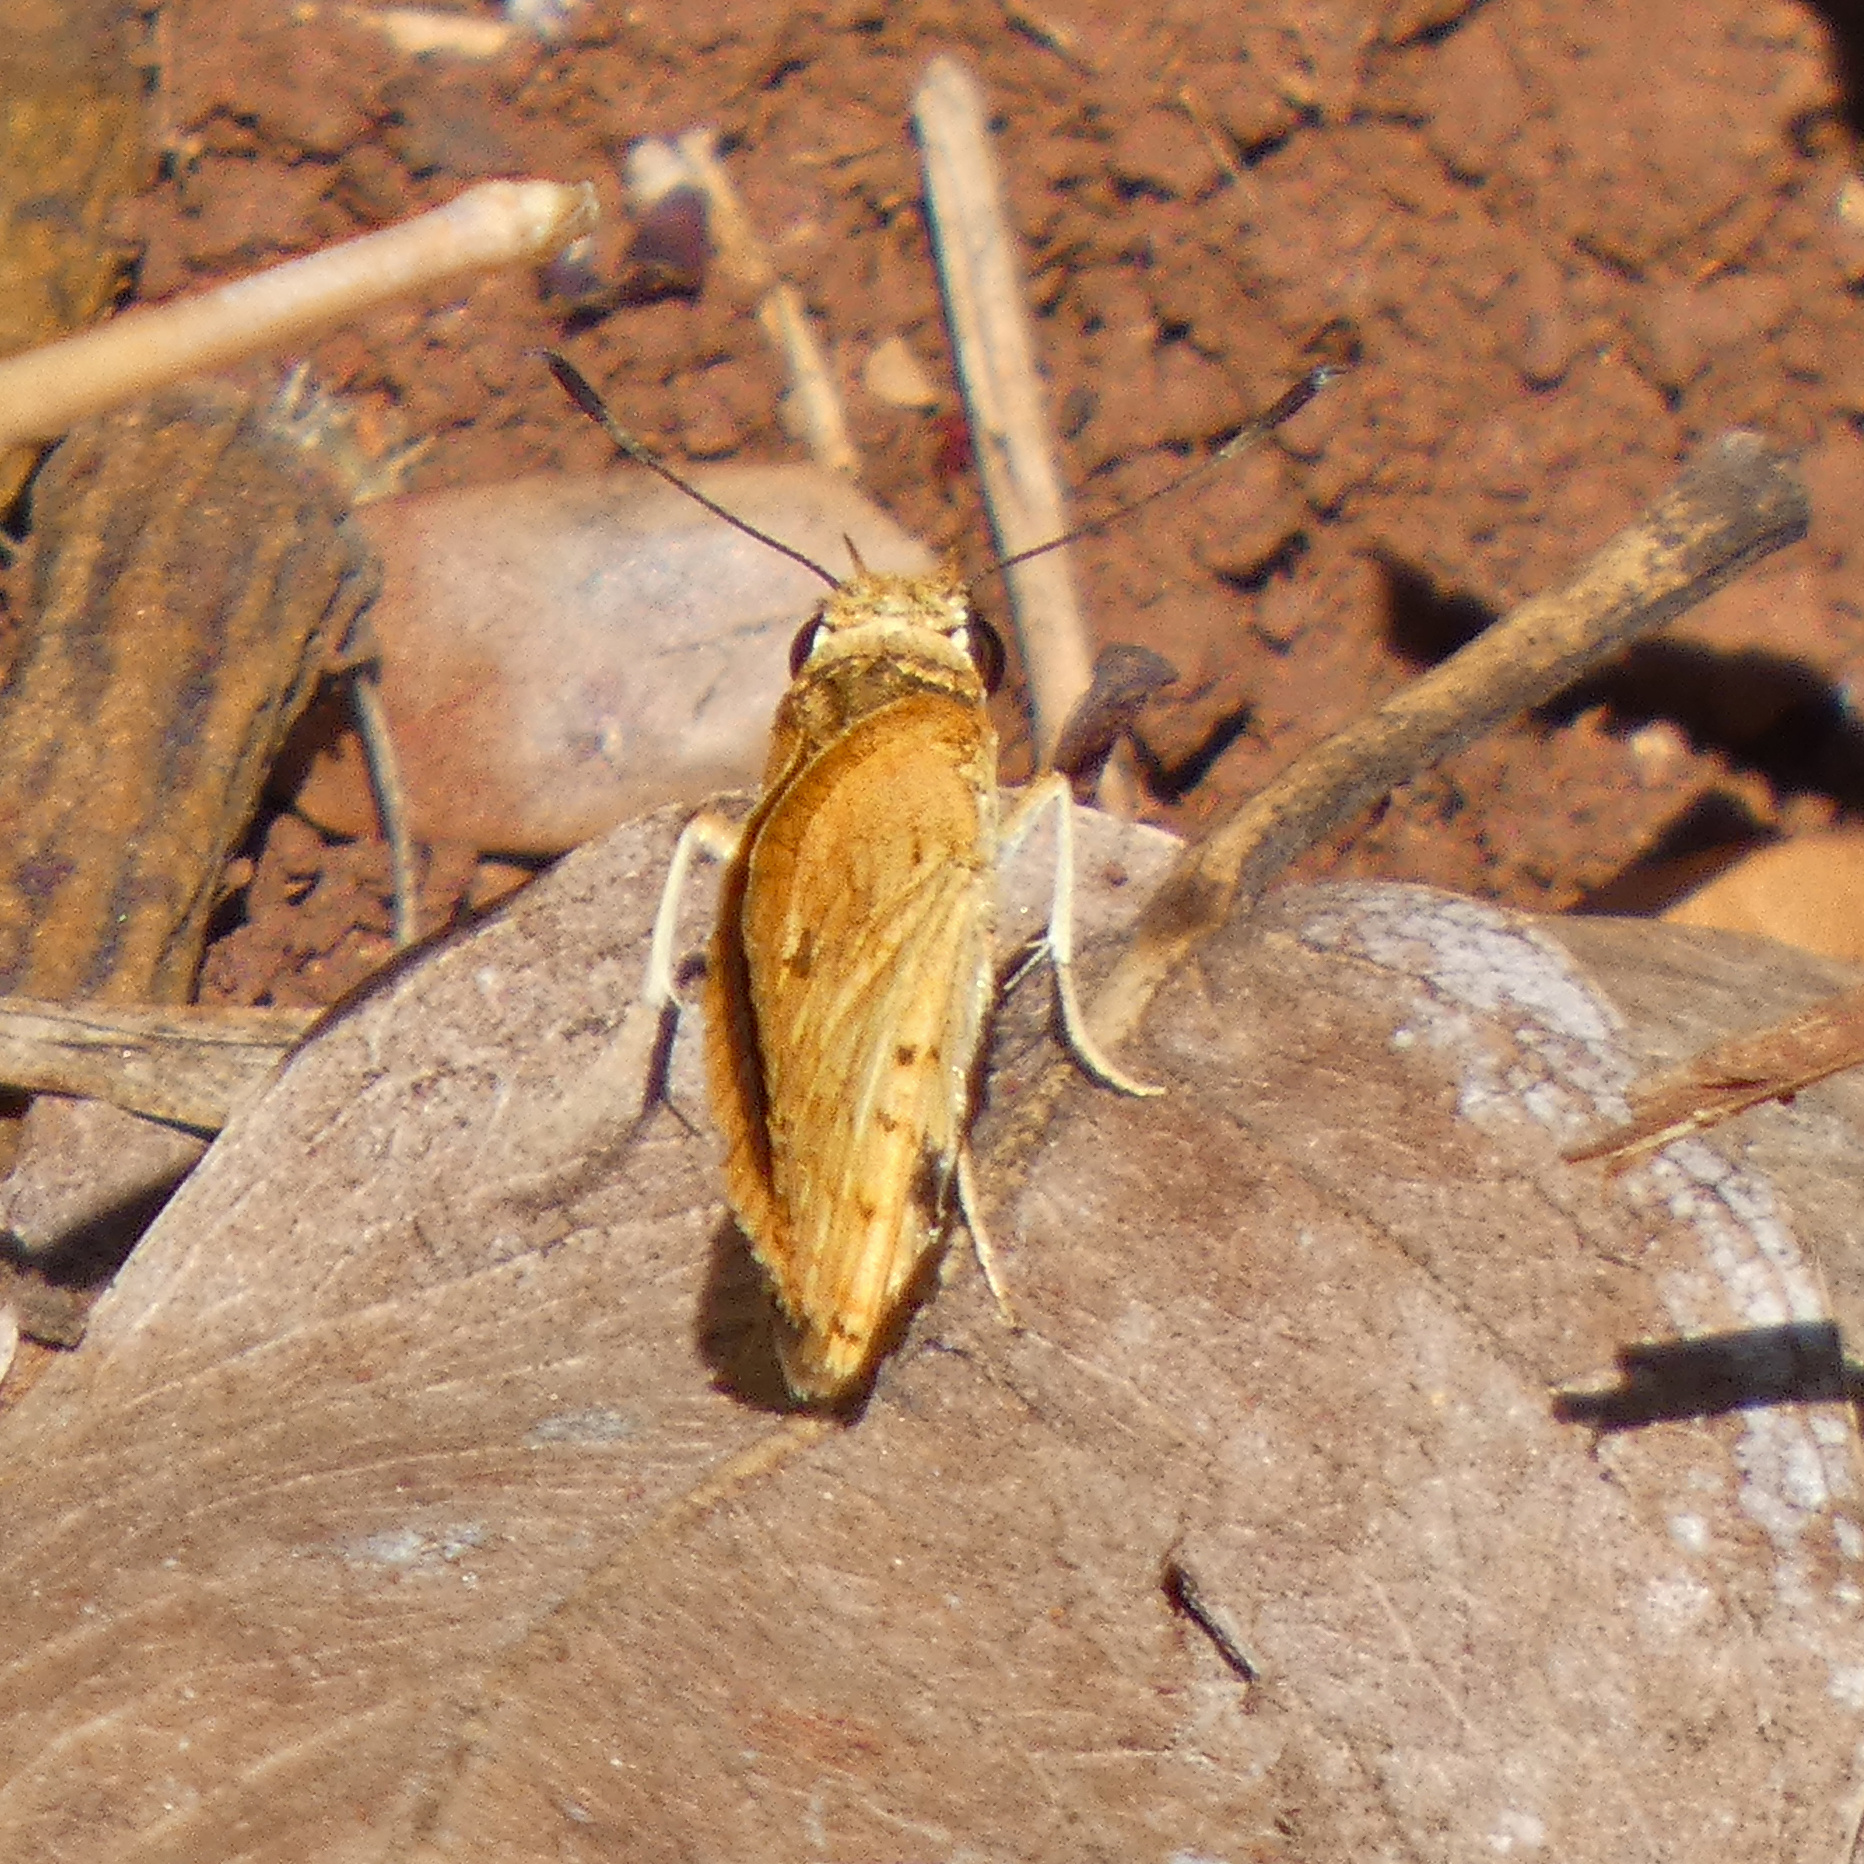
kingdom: Animalia
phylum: Arthropoda
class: Insecta
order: Lepidoptera
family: Hesperiidae
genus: Acada
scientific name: Acada biseriatus
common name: Axehead orange
